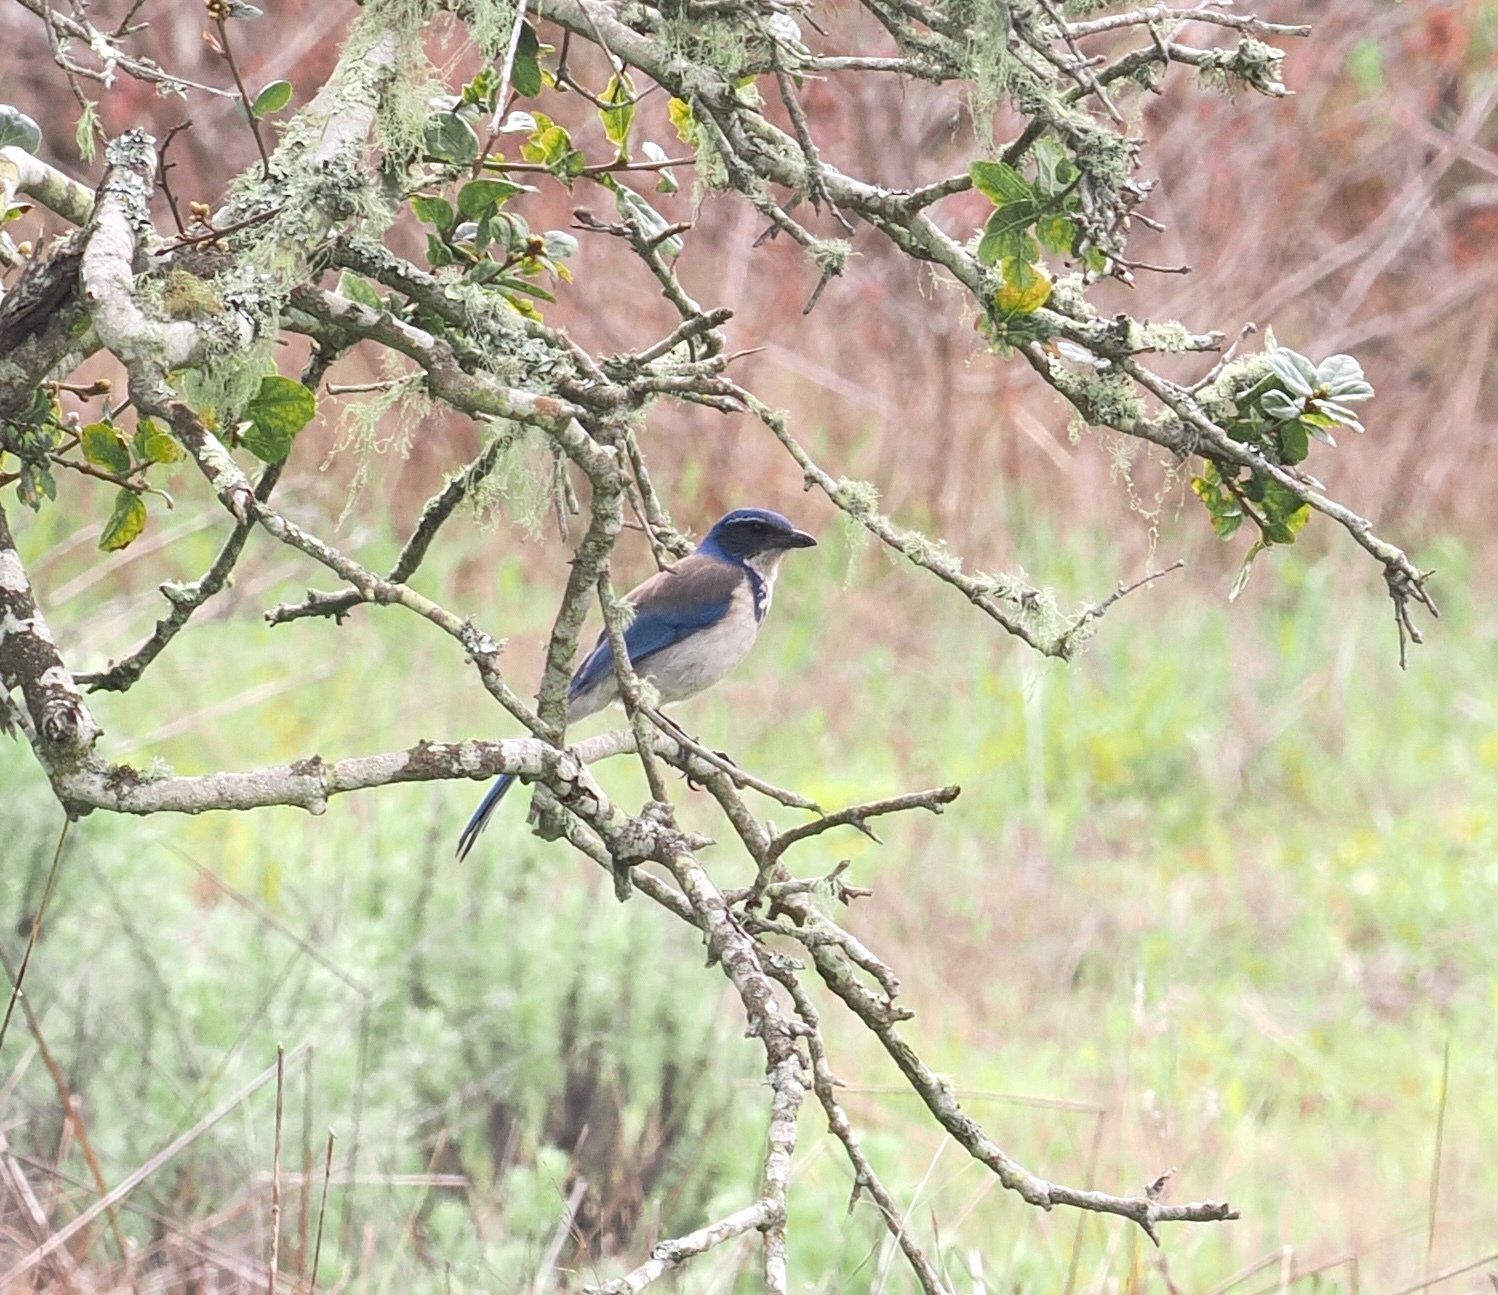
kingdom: Animalia
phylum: Chordata
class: Aves
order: Passeriformes
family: Corvidae
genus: Aphelocoma
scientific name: Aphelocoma californica
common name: California scrub-jay
